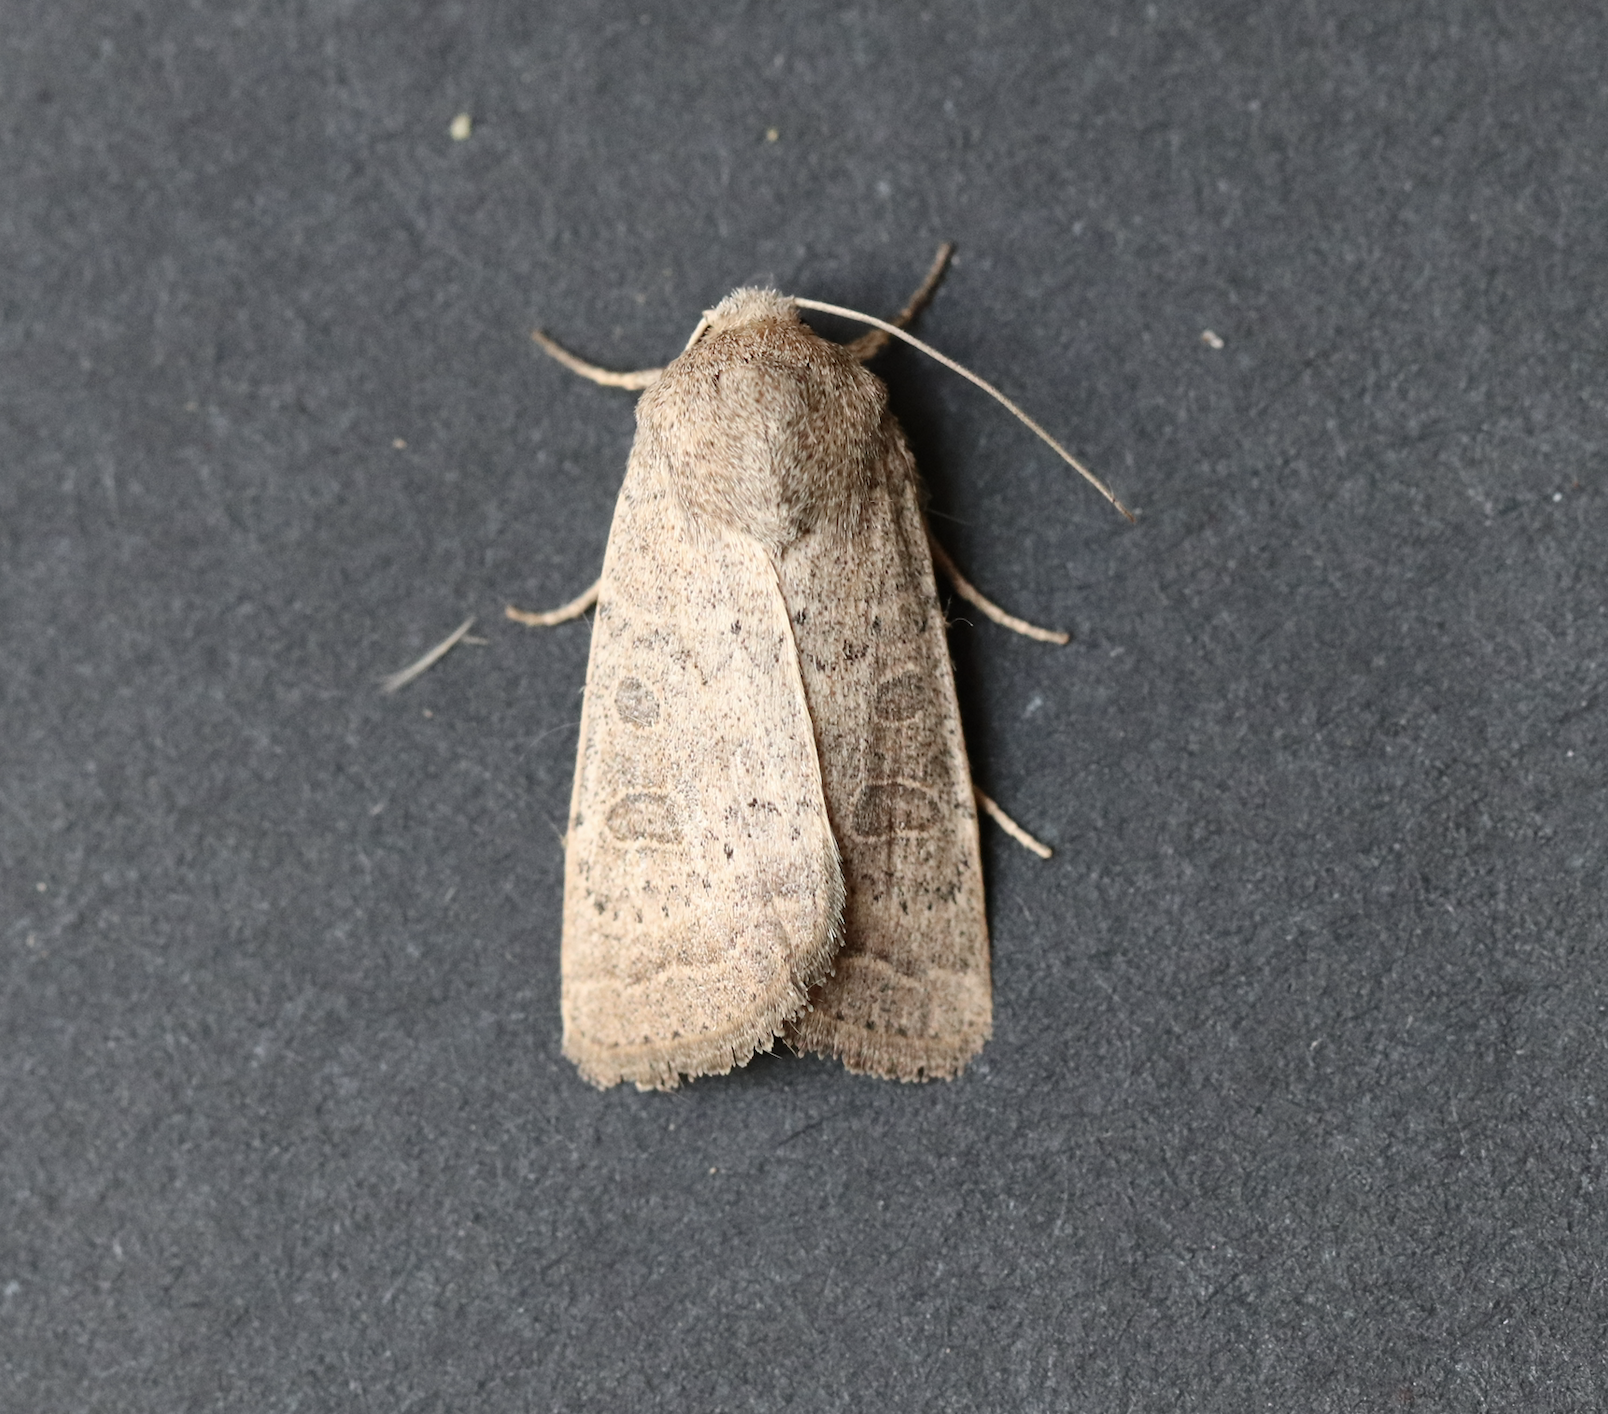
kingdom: Animalia
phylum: Arthropoda
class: Insecta
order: Lepidoptera
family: Noctuidae
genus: Hoplodrina
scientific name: Hoplodrina ambigua
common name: Vine's rustic
